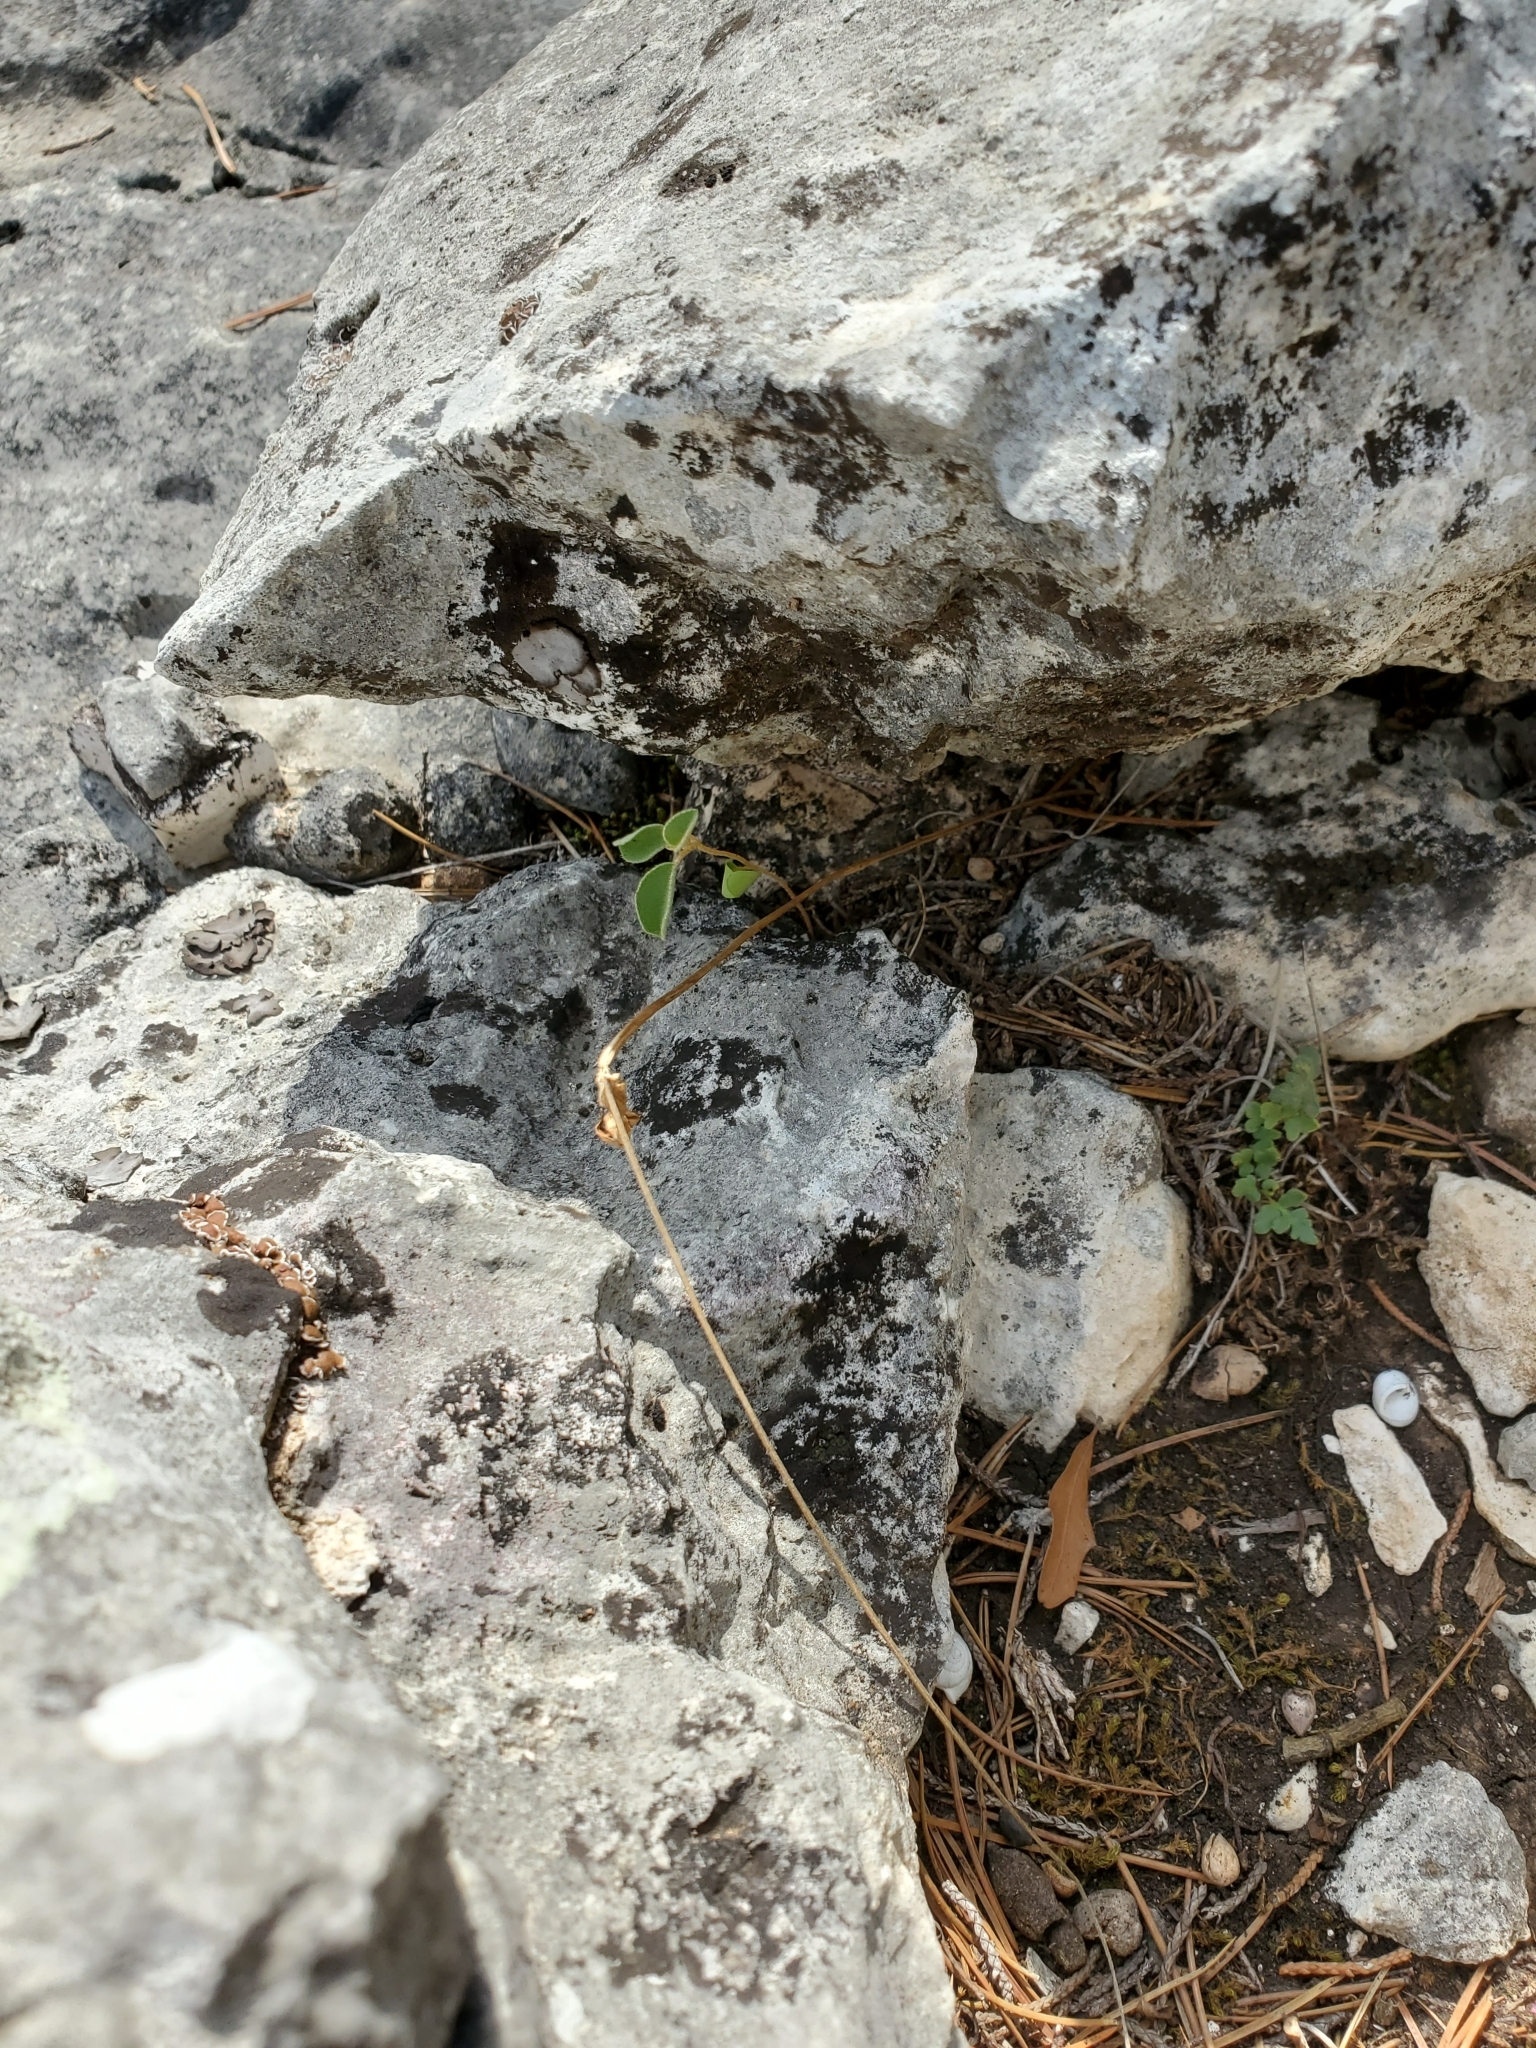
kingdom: Plantae
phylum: Tracheophyta
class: Magnoliopsida
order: Ranunculales
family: Ranunculaceae
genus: Anemone
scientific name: Anemone edwardsiana
